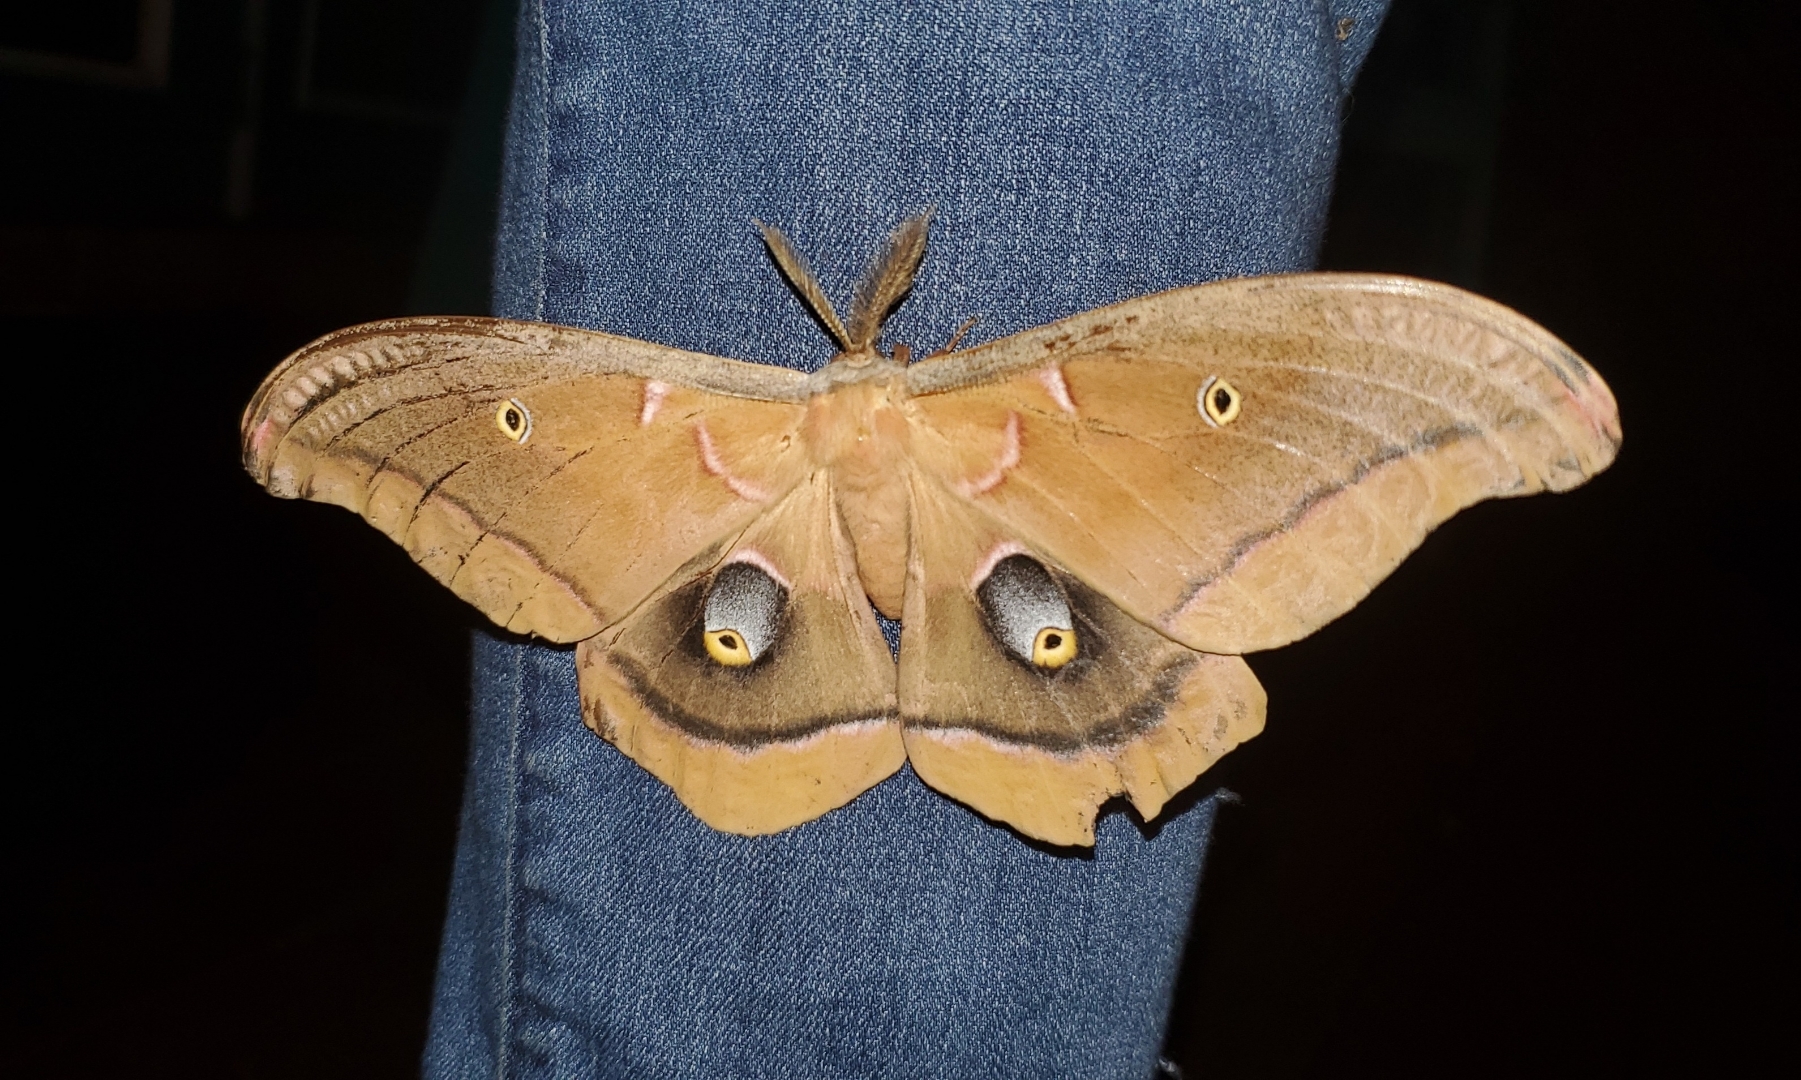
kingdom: Animalia
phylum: Arthropoda
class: Insecta
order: Lepidoptera
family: Saturniidae
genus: Antheraea
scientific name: Antheraea polyphemus
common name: Polyphemus moth
